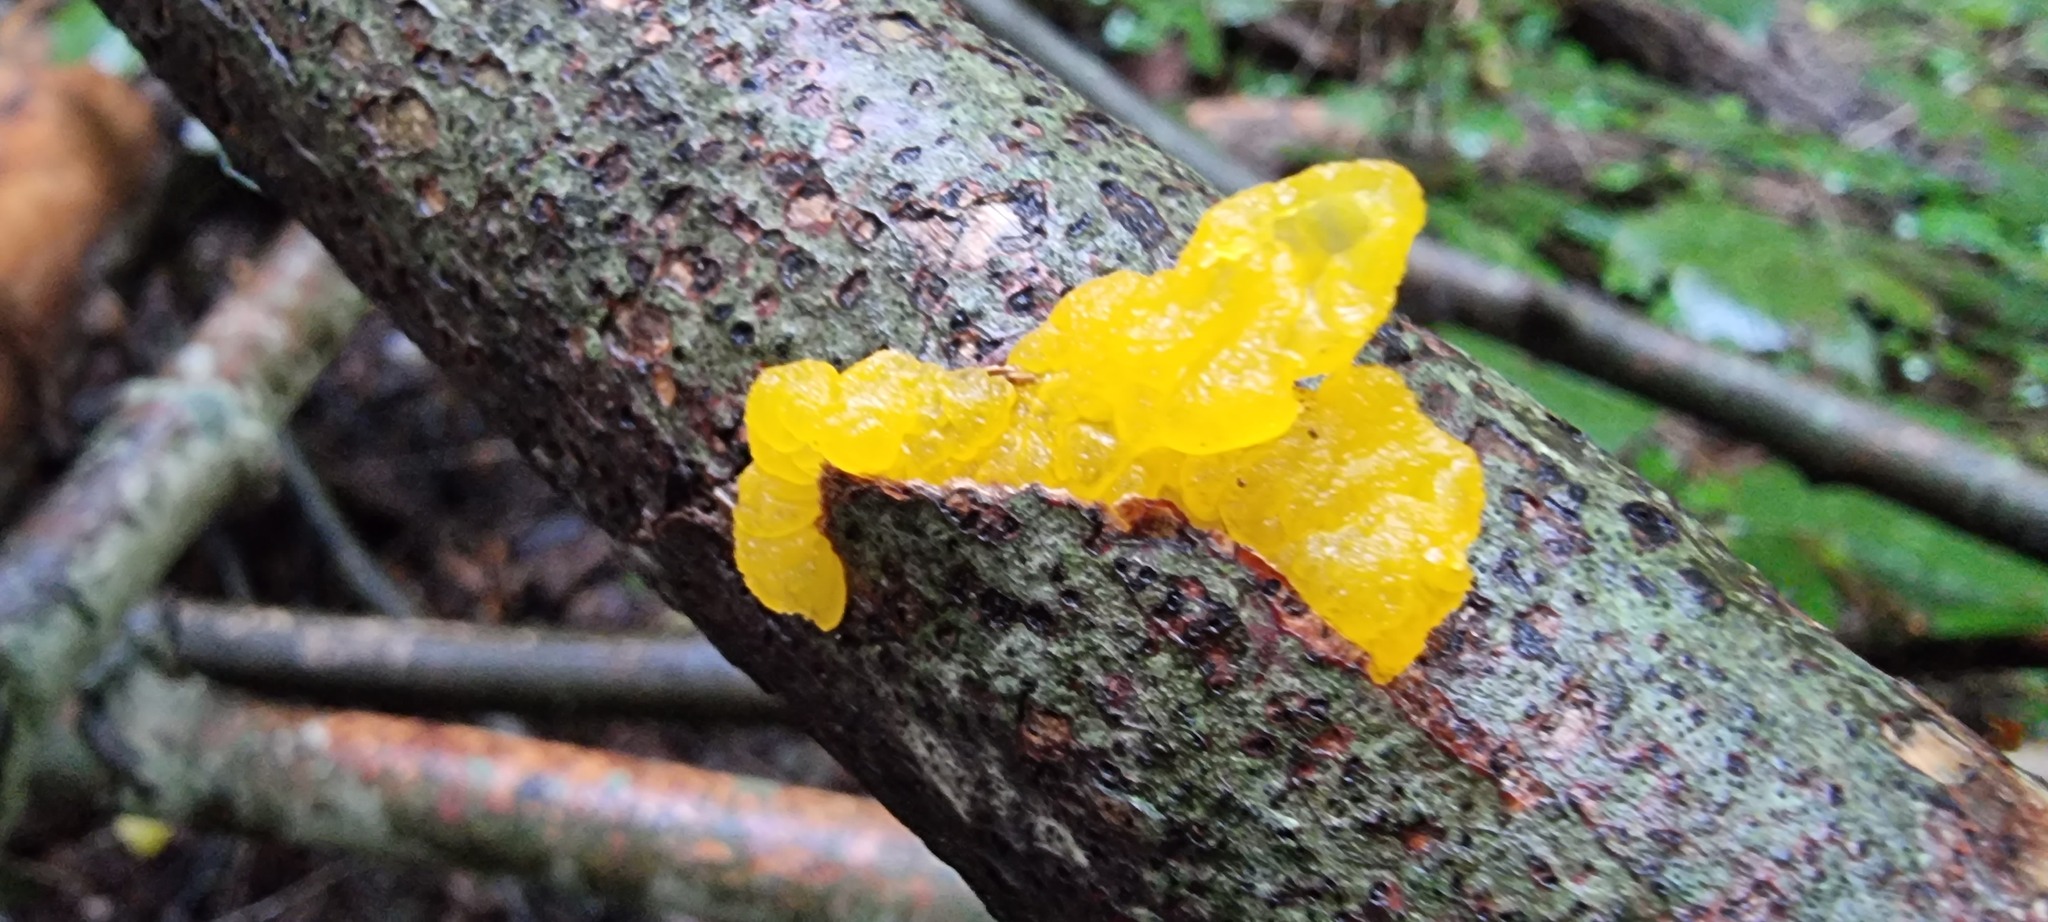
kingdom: Fungi
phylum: Basidiomycota
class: Tremellomycetes
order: Tremellales
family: Tremellaceae
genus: Tremella
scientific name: Tremella mesenterica
